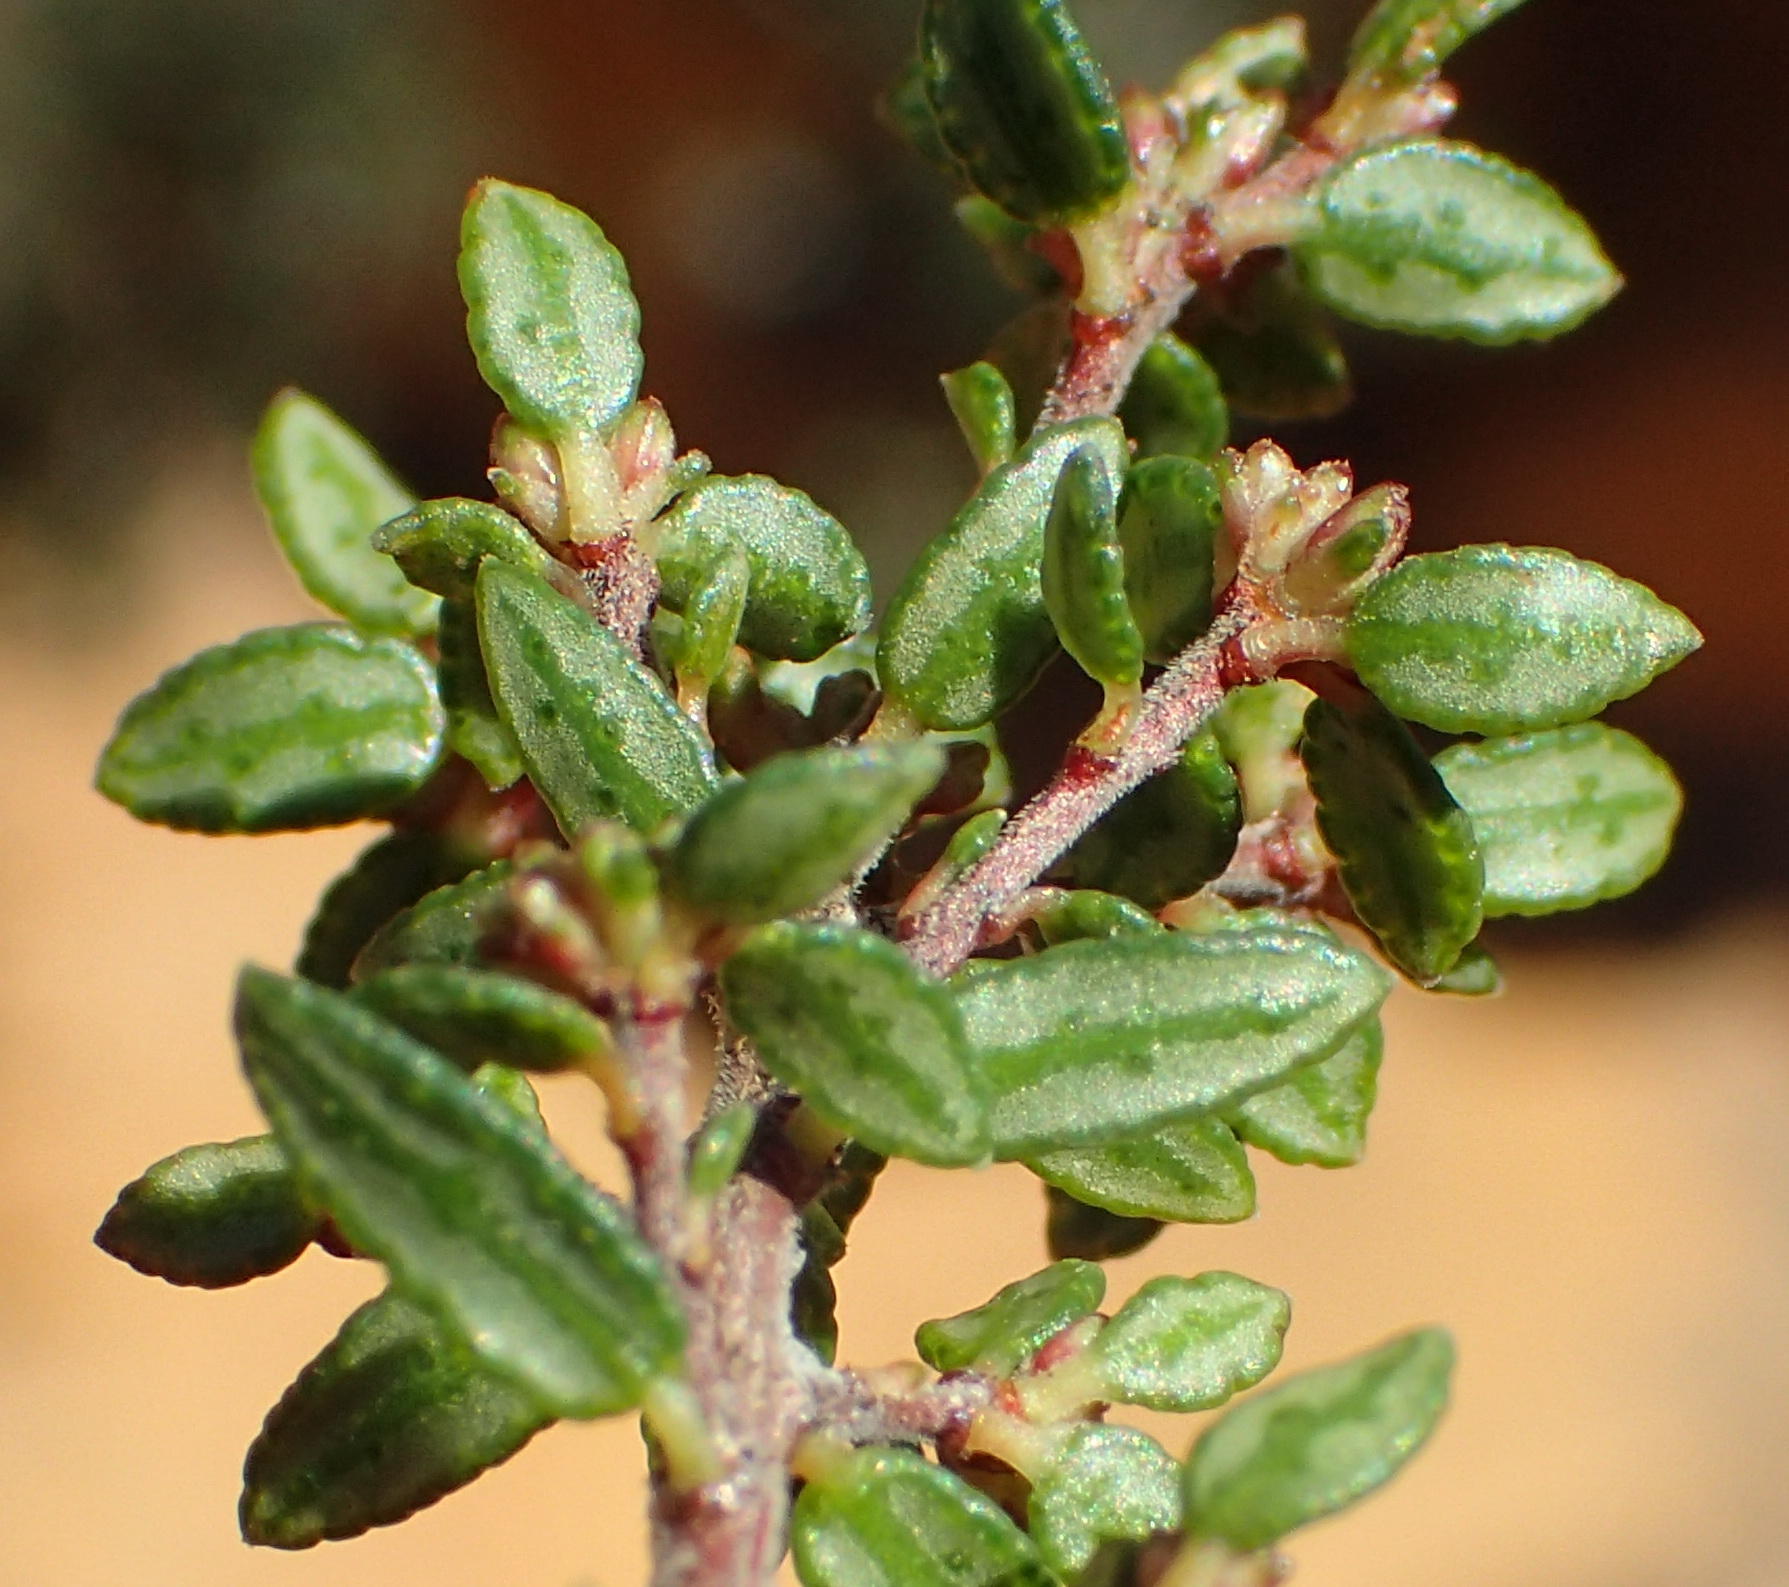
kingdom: Plantae
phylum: Tracheophyta
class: Magnoliopsida
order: Sapindales
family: Rutaceae
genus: Agathosma
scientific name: Agathosma mundtii
